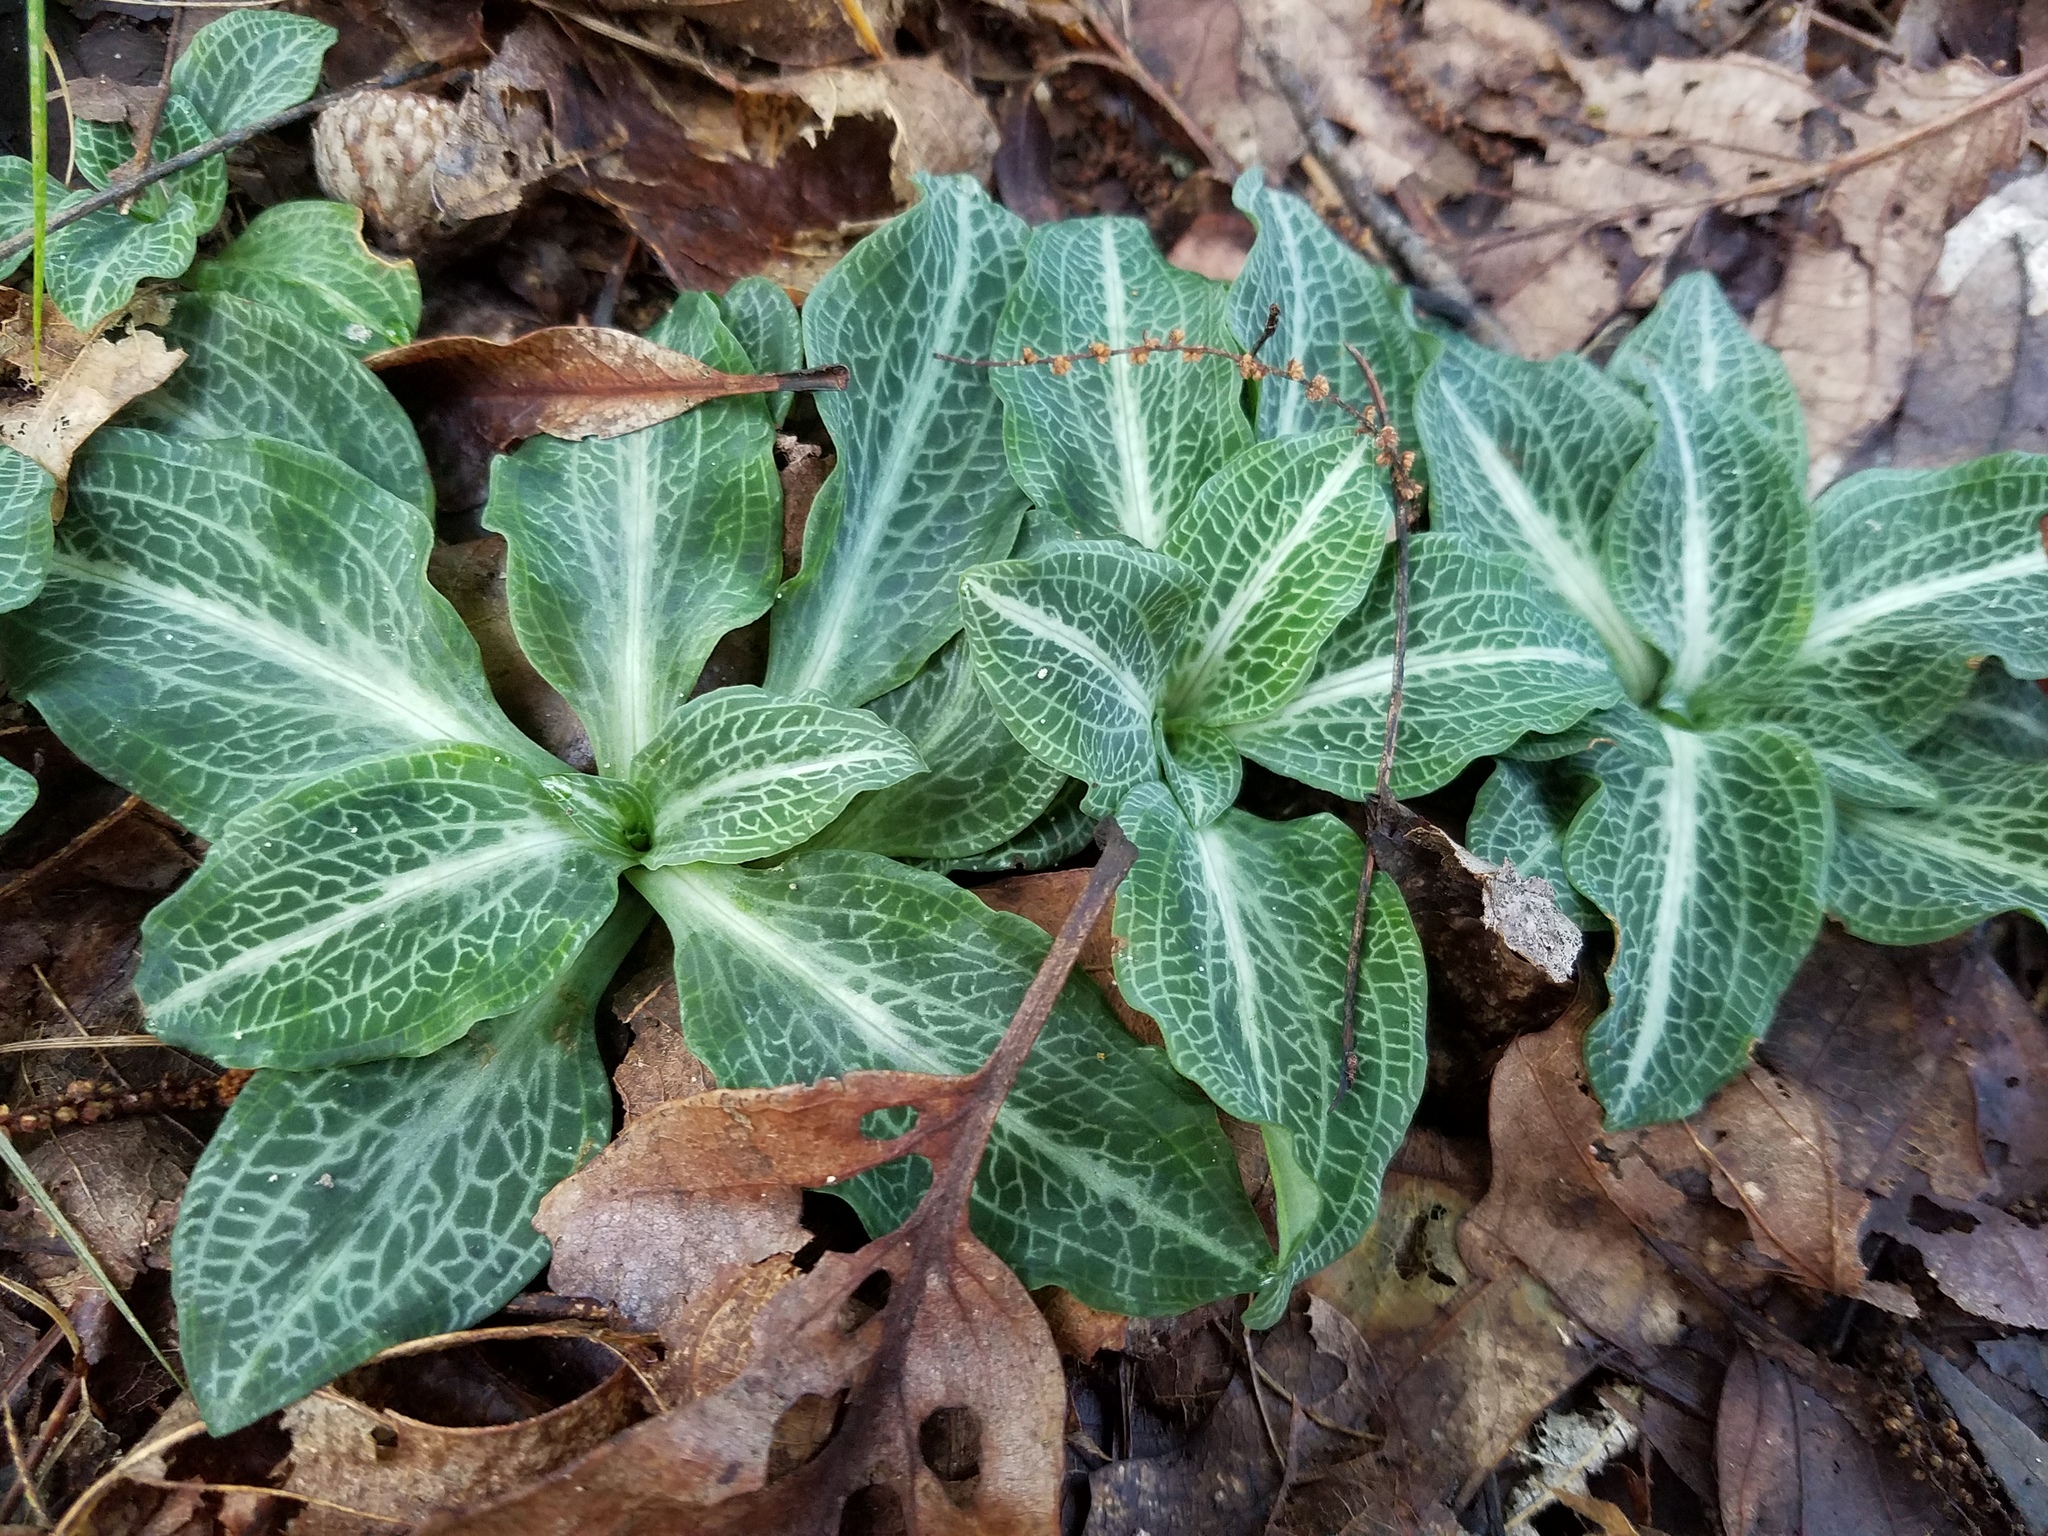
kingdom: Plantae
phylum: Tracheophyta
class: Liliopsida
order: Asparagales
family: Orchidaceae
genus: Goodyera
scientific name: Goodyera pubescens
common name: Downy rattlesnake-plantain
